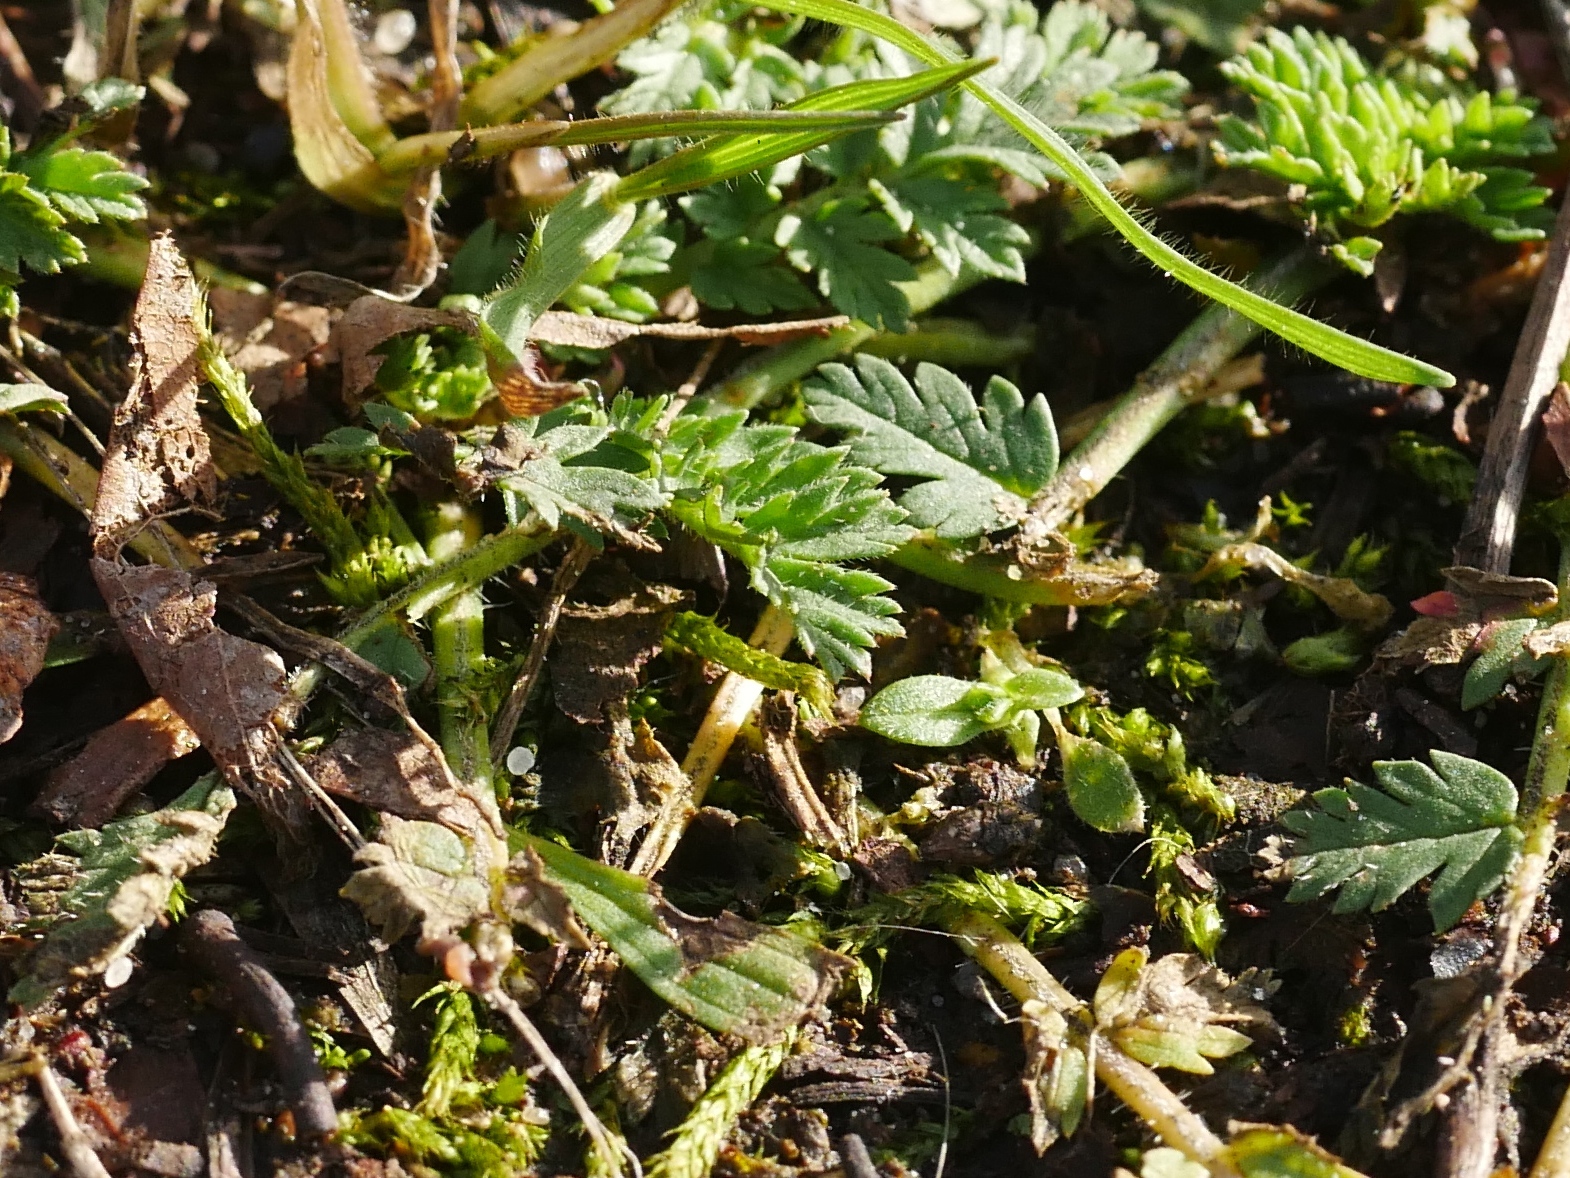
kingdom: Plantae
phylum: Tracheophyta
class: Magnoliopsida
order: Geraniales
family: Geraniaceae
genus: Erodium
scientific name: Erodium cicutarium
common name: Common stork's-bill
